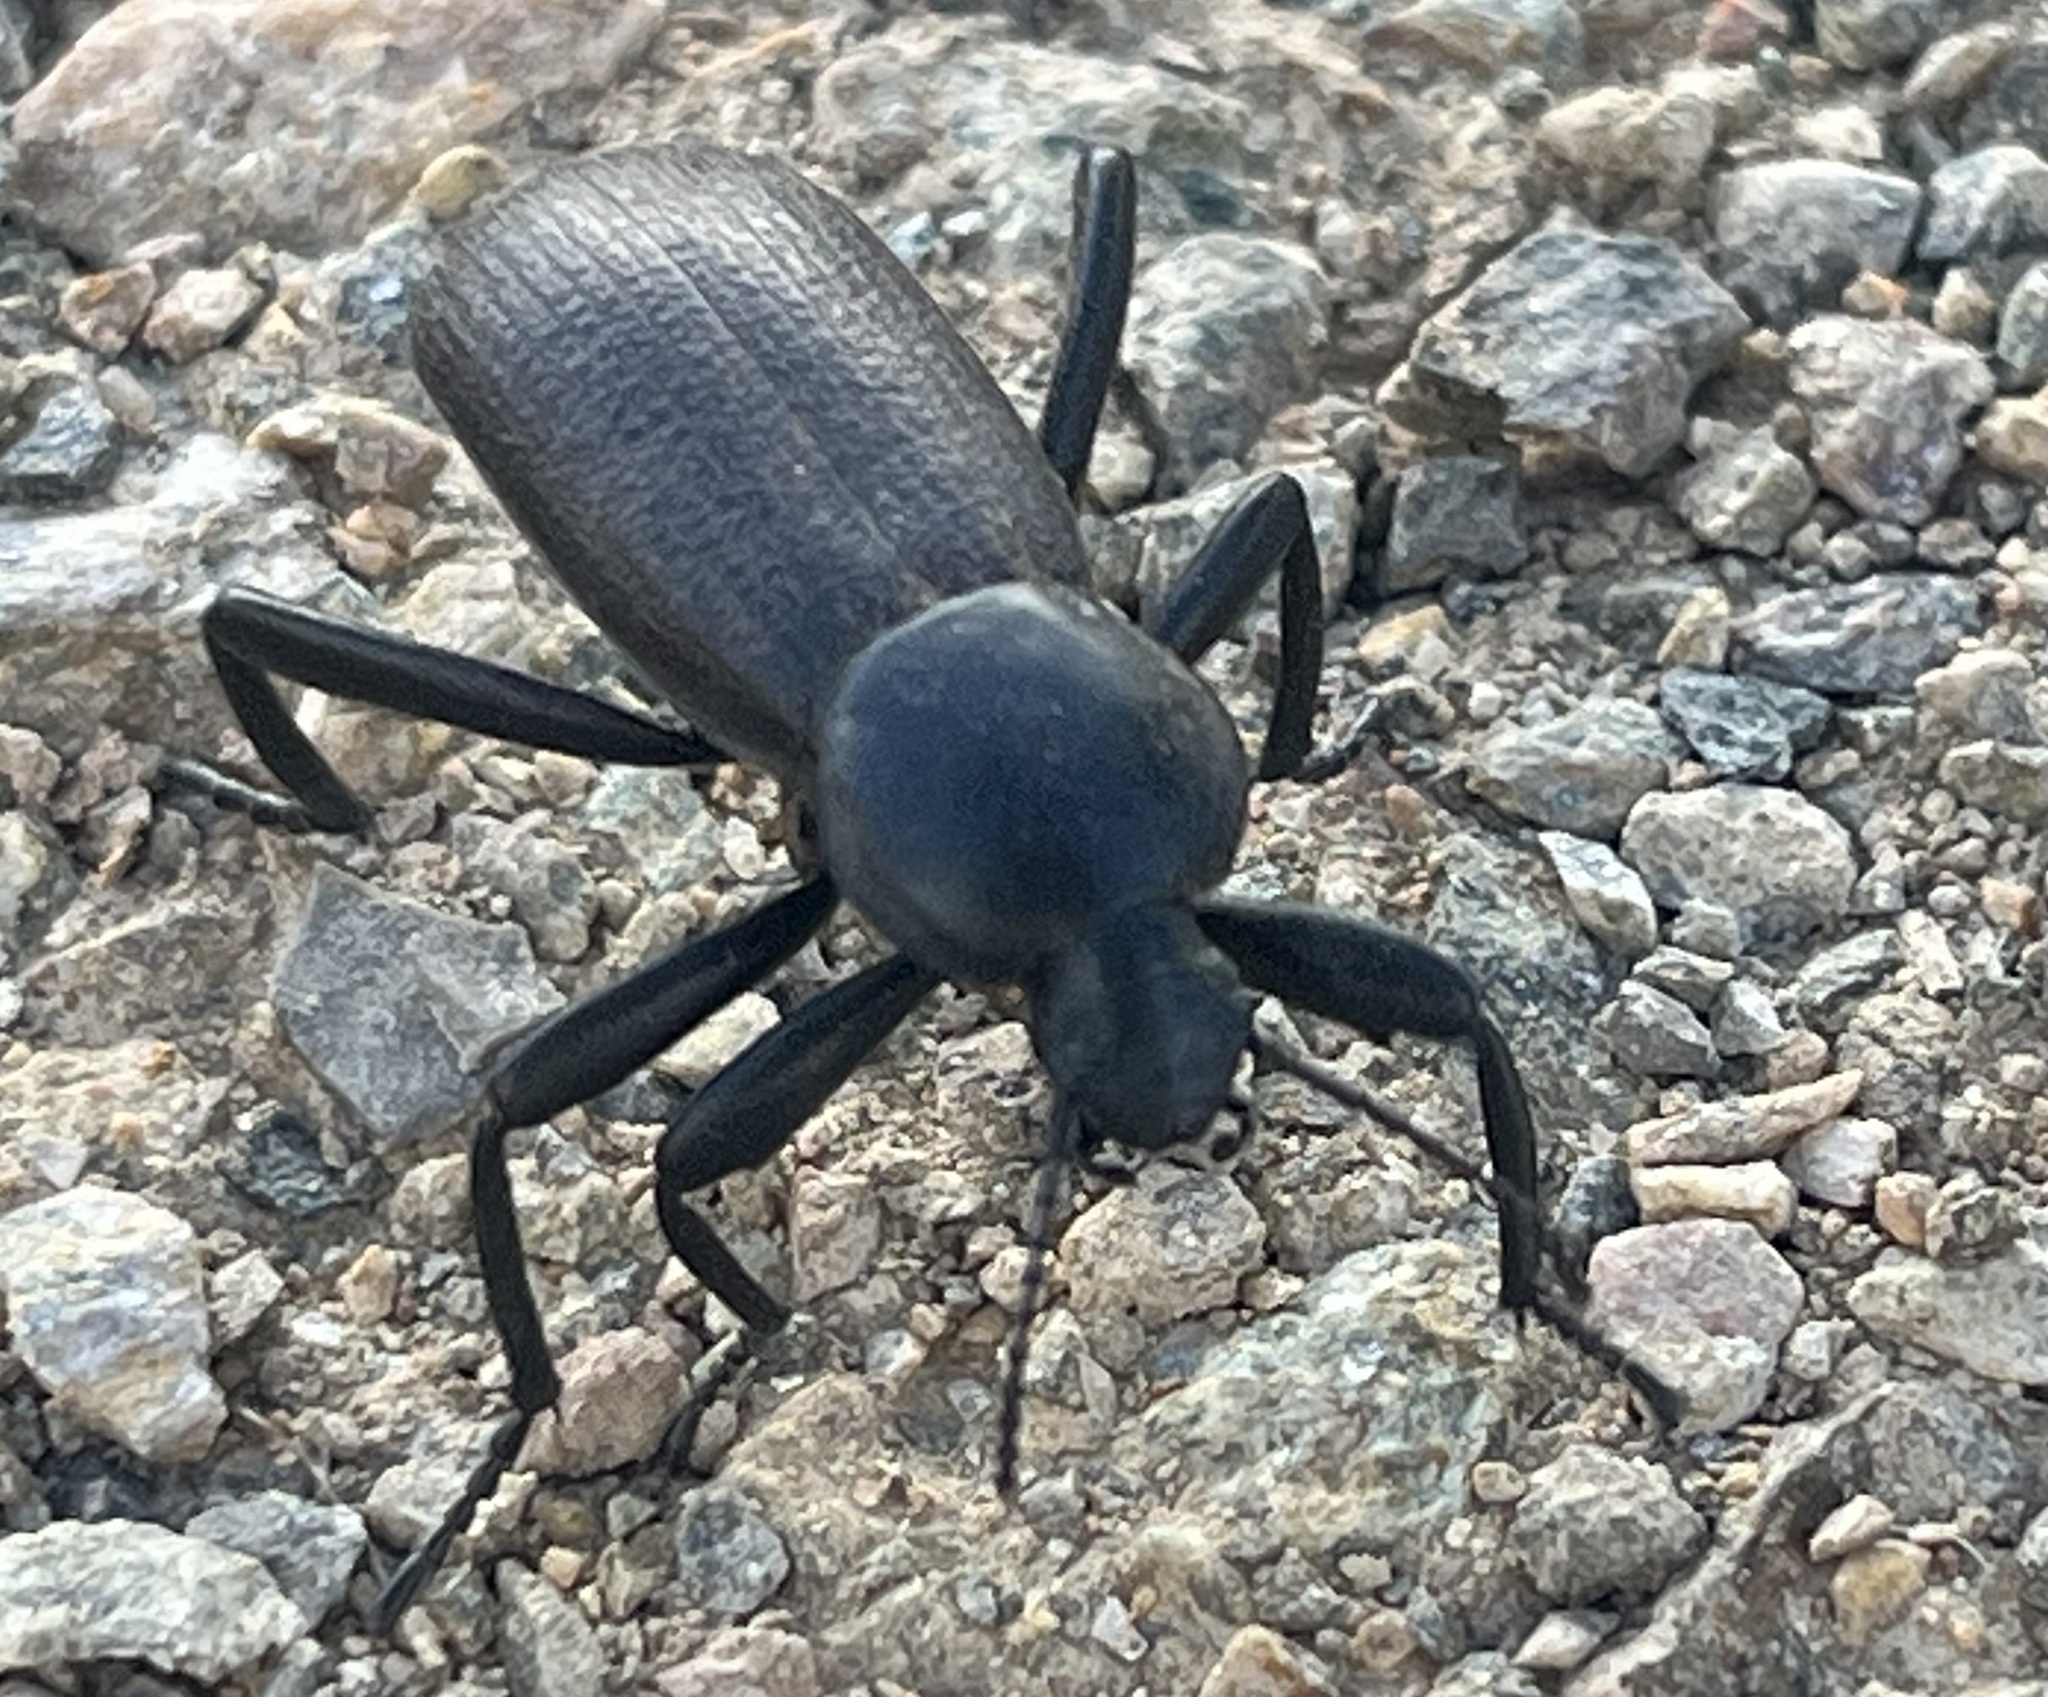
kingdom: Animalia
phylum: Arthropoda
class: Insecta
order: Coleoptera
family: Tenebrionidae
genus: Eleodes
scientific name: Eleodes obscura
